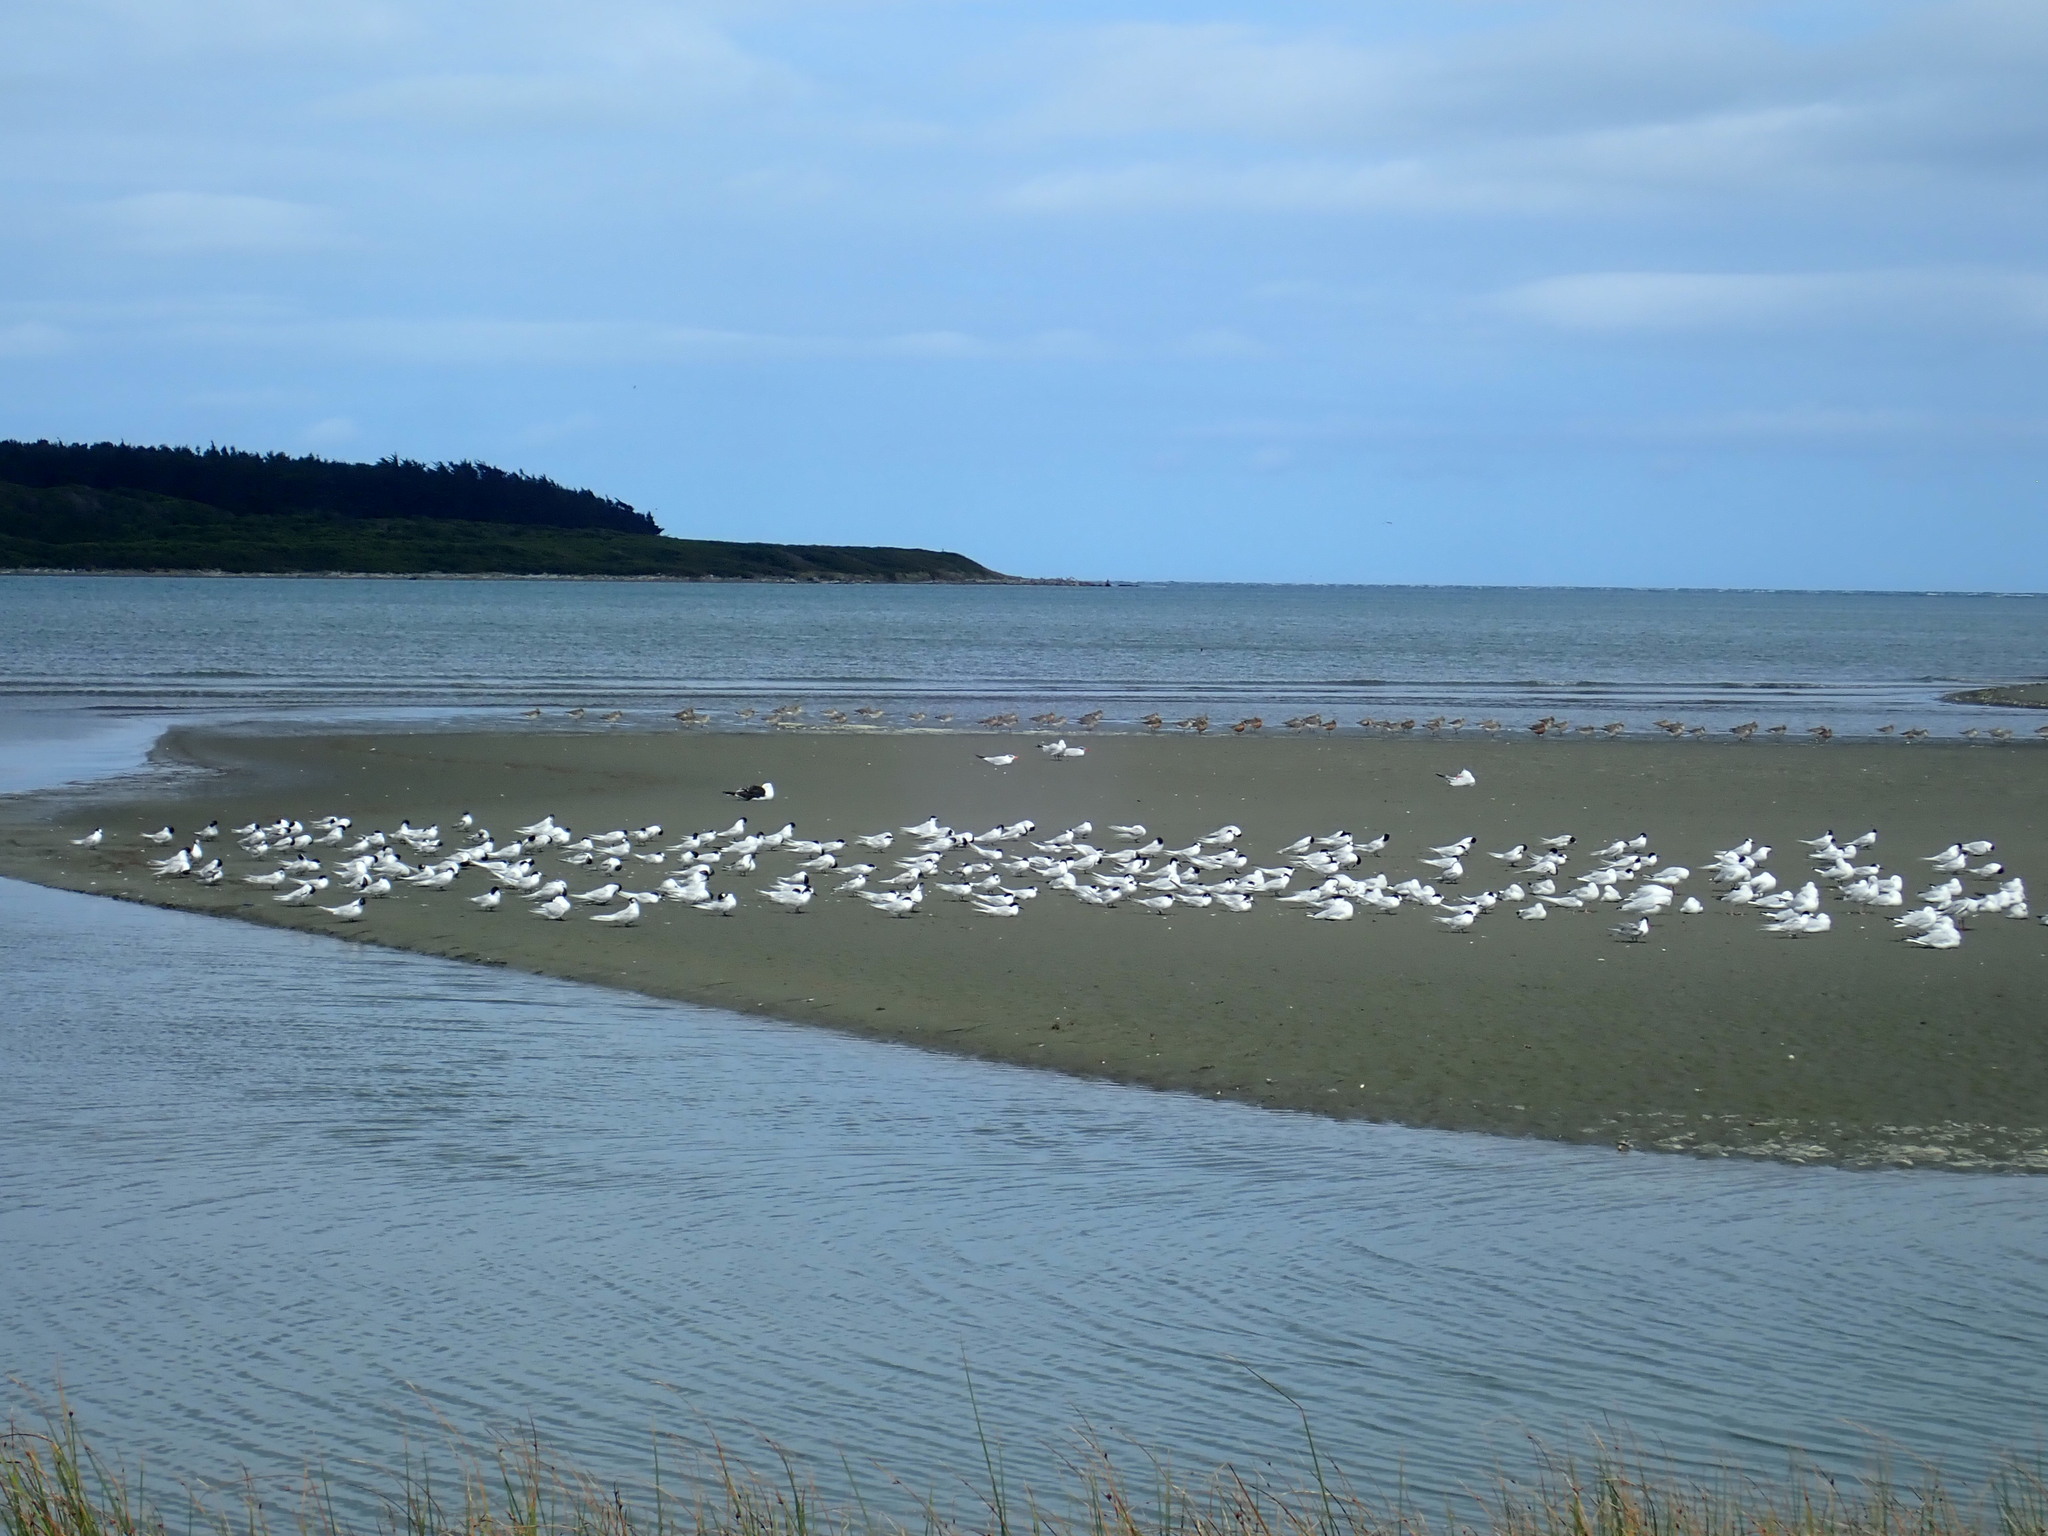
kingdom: Animalia
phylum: Chordata
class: Aves
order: Charadriiformes
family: Laridae
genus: Sterna
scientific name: Sterna striata
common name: White-fronted tern
